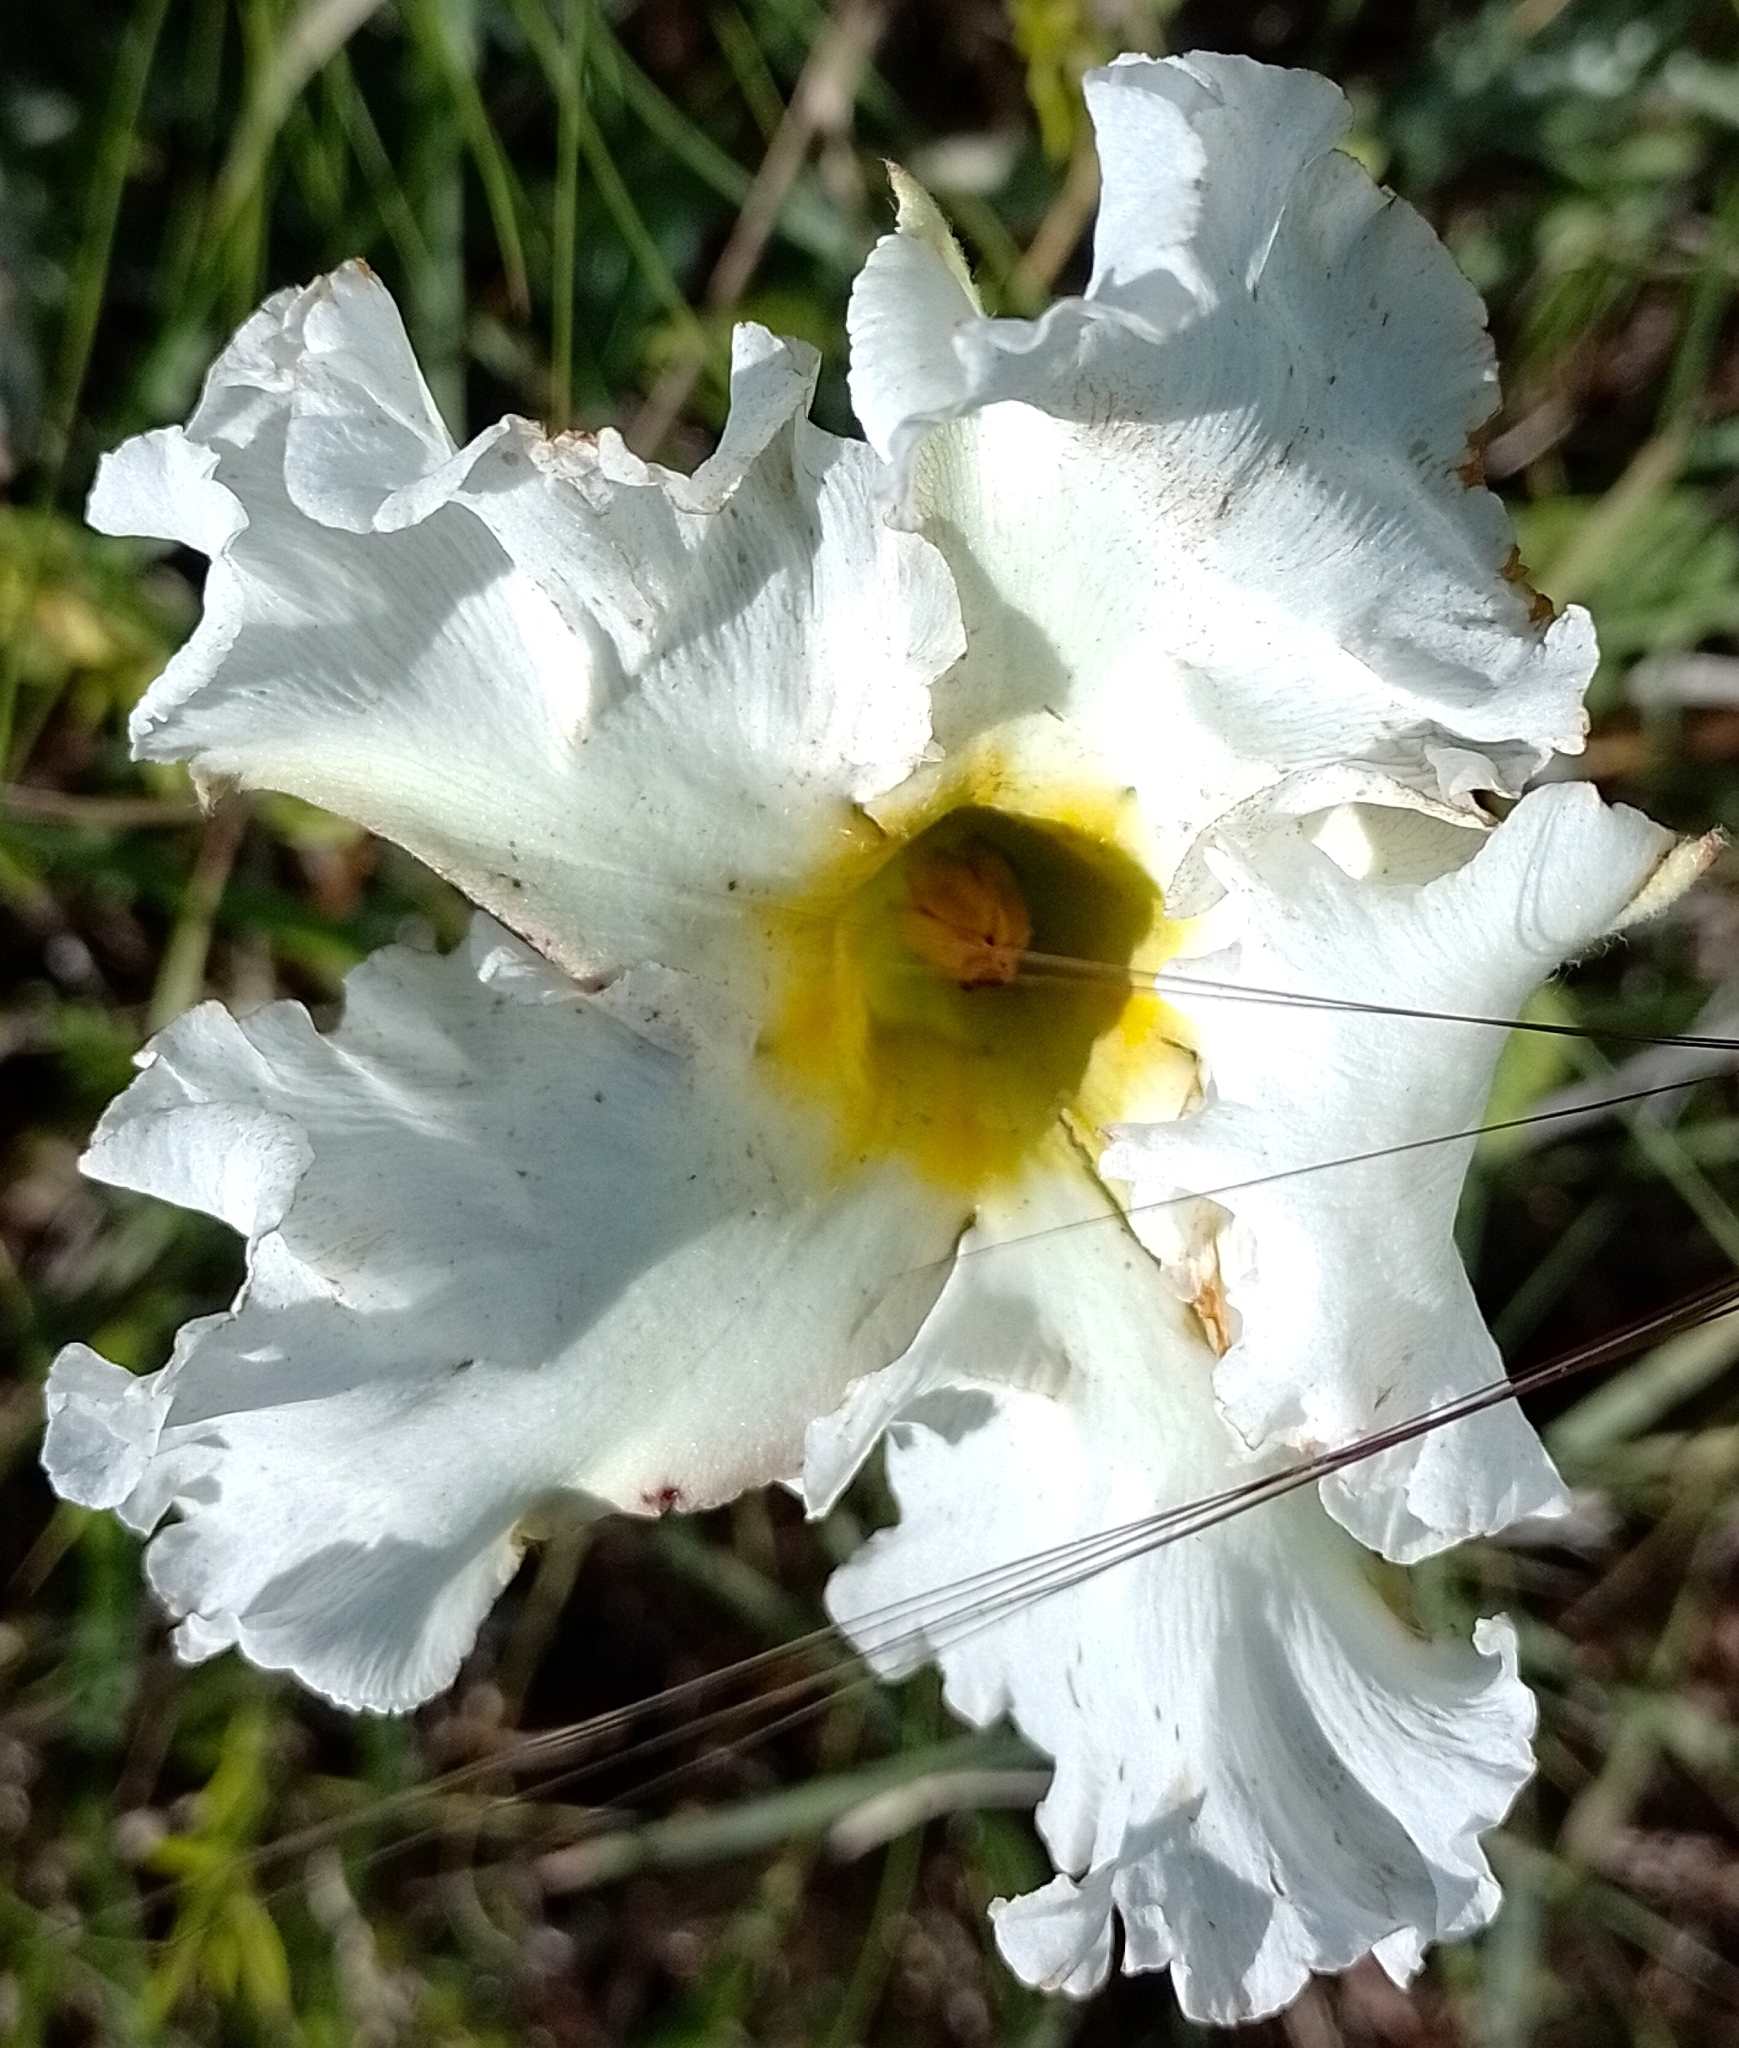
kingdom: Plantae
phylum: Tracheophyta
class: Magnoliopsida
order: Gentianales
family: Apocynaceae
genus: Mandevilla
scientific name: Mandevilla petraea
